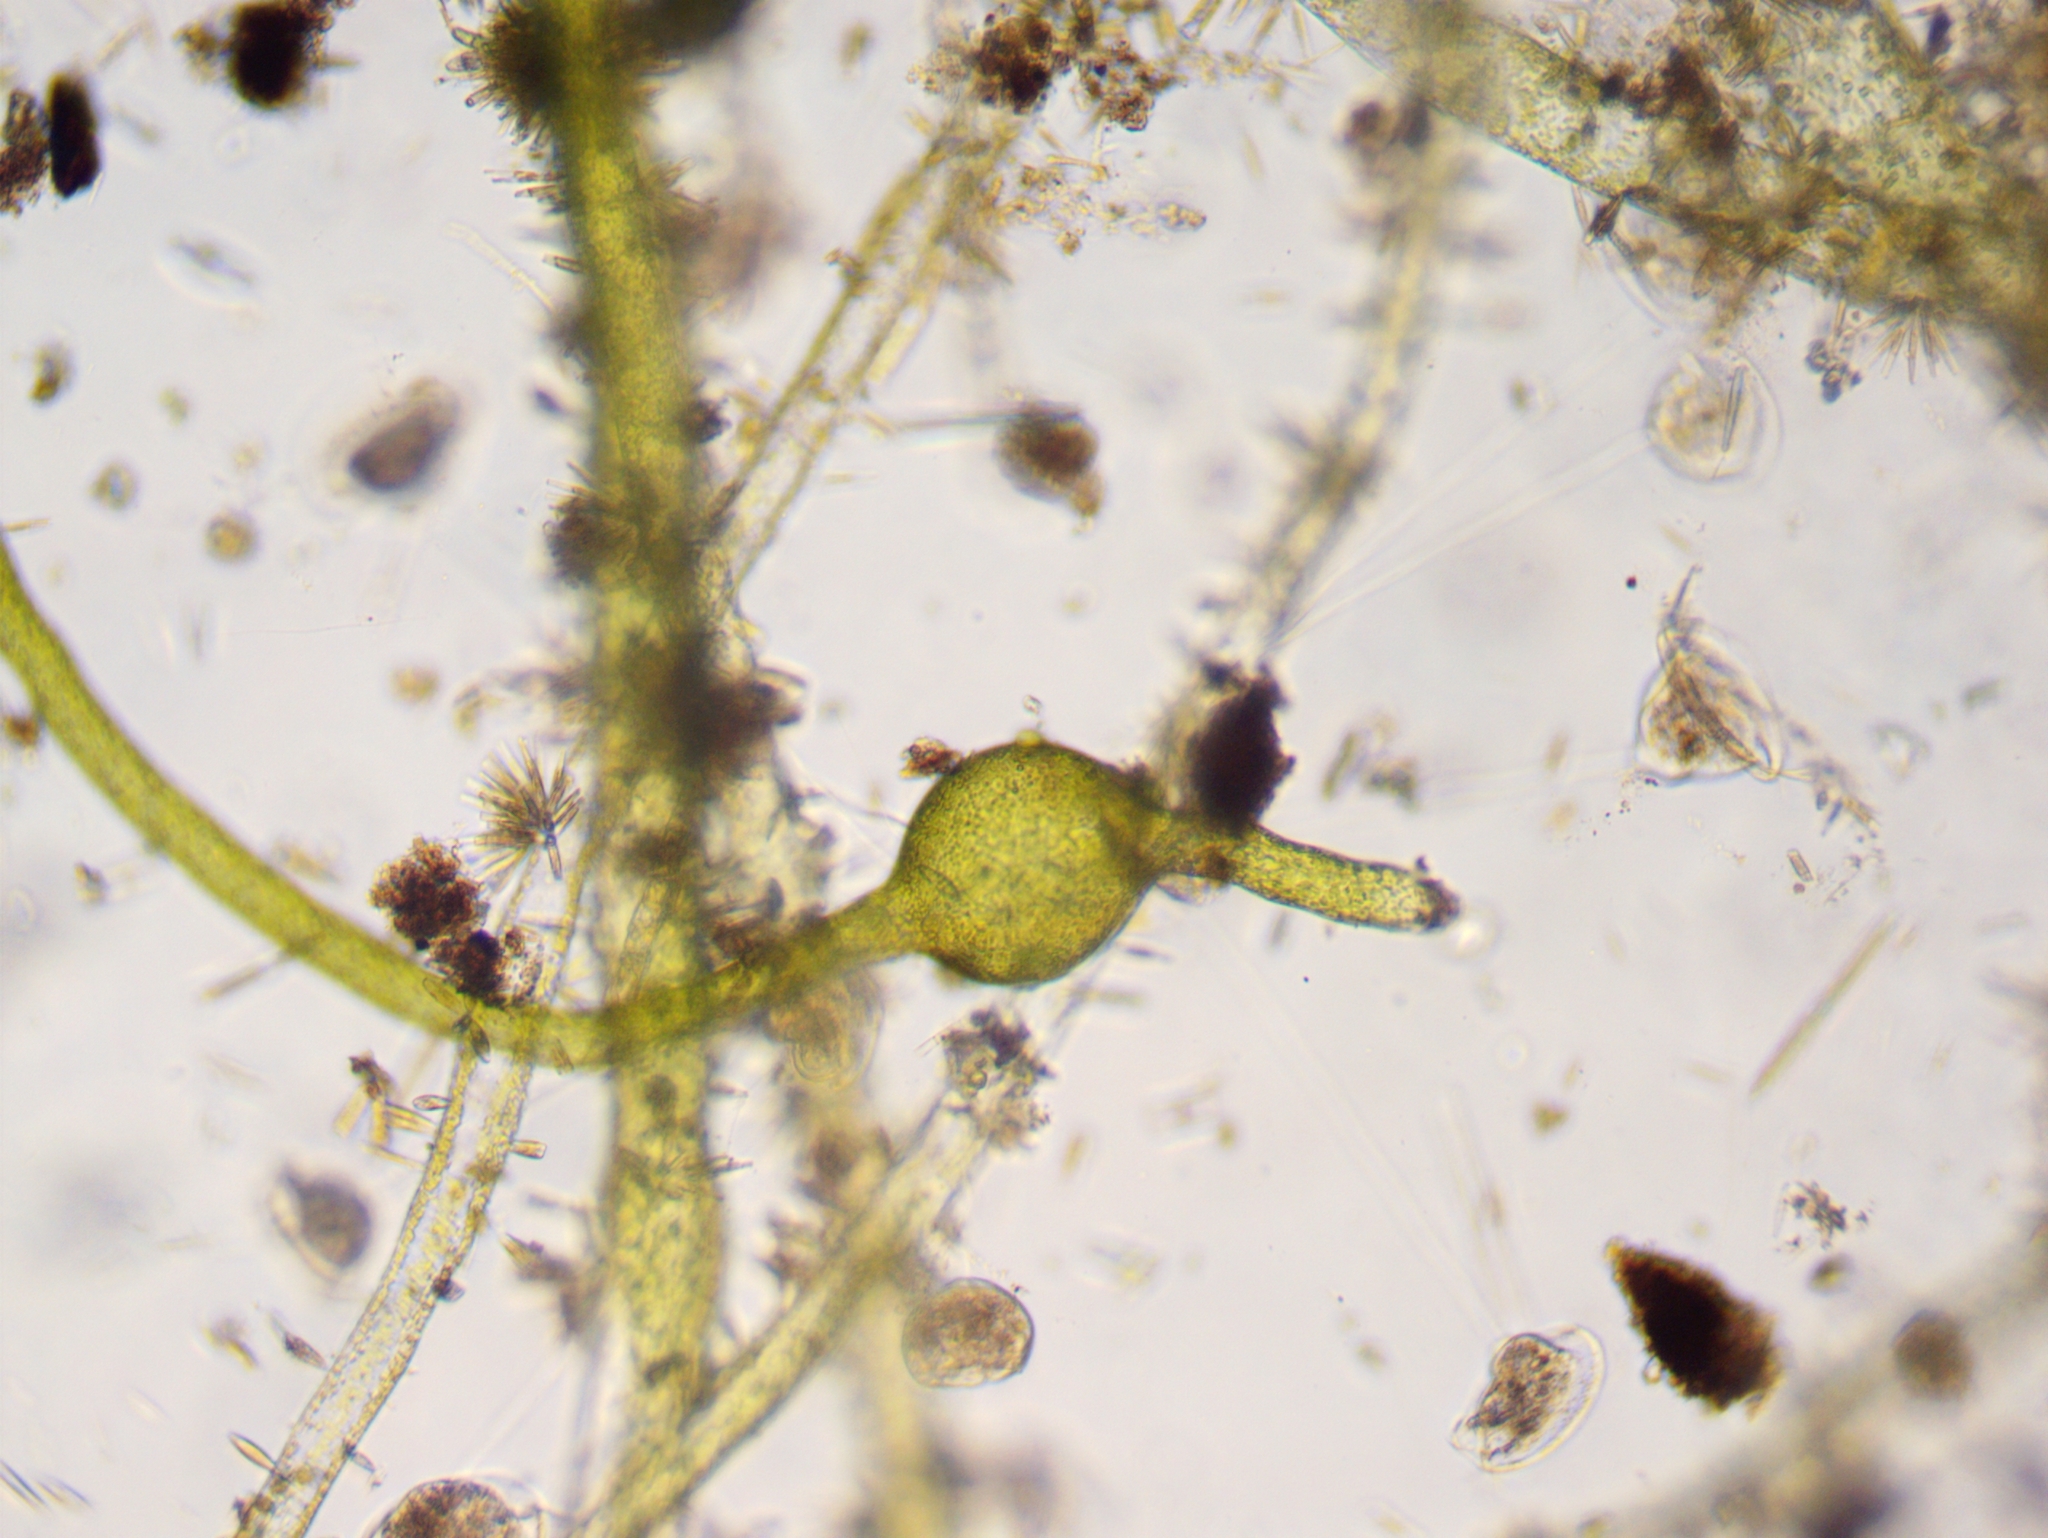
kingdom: Chromista
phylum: Ochrophyta
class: Xanthophyceae
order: Vaucheriales
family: Vaucheriaceae
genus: Vaucheria
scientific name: Vaucheria
